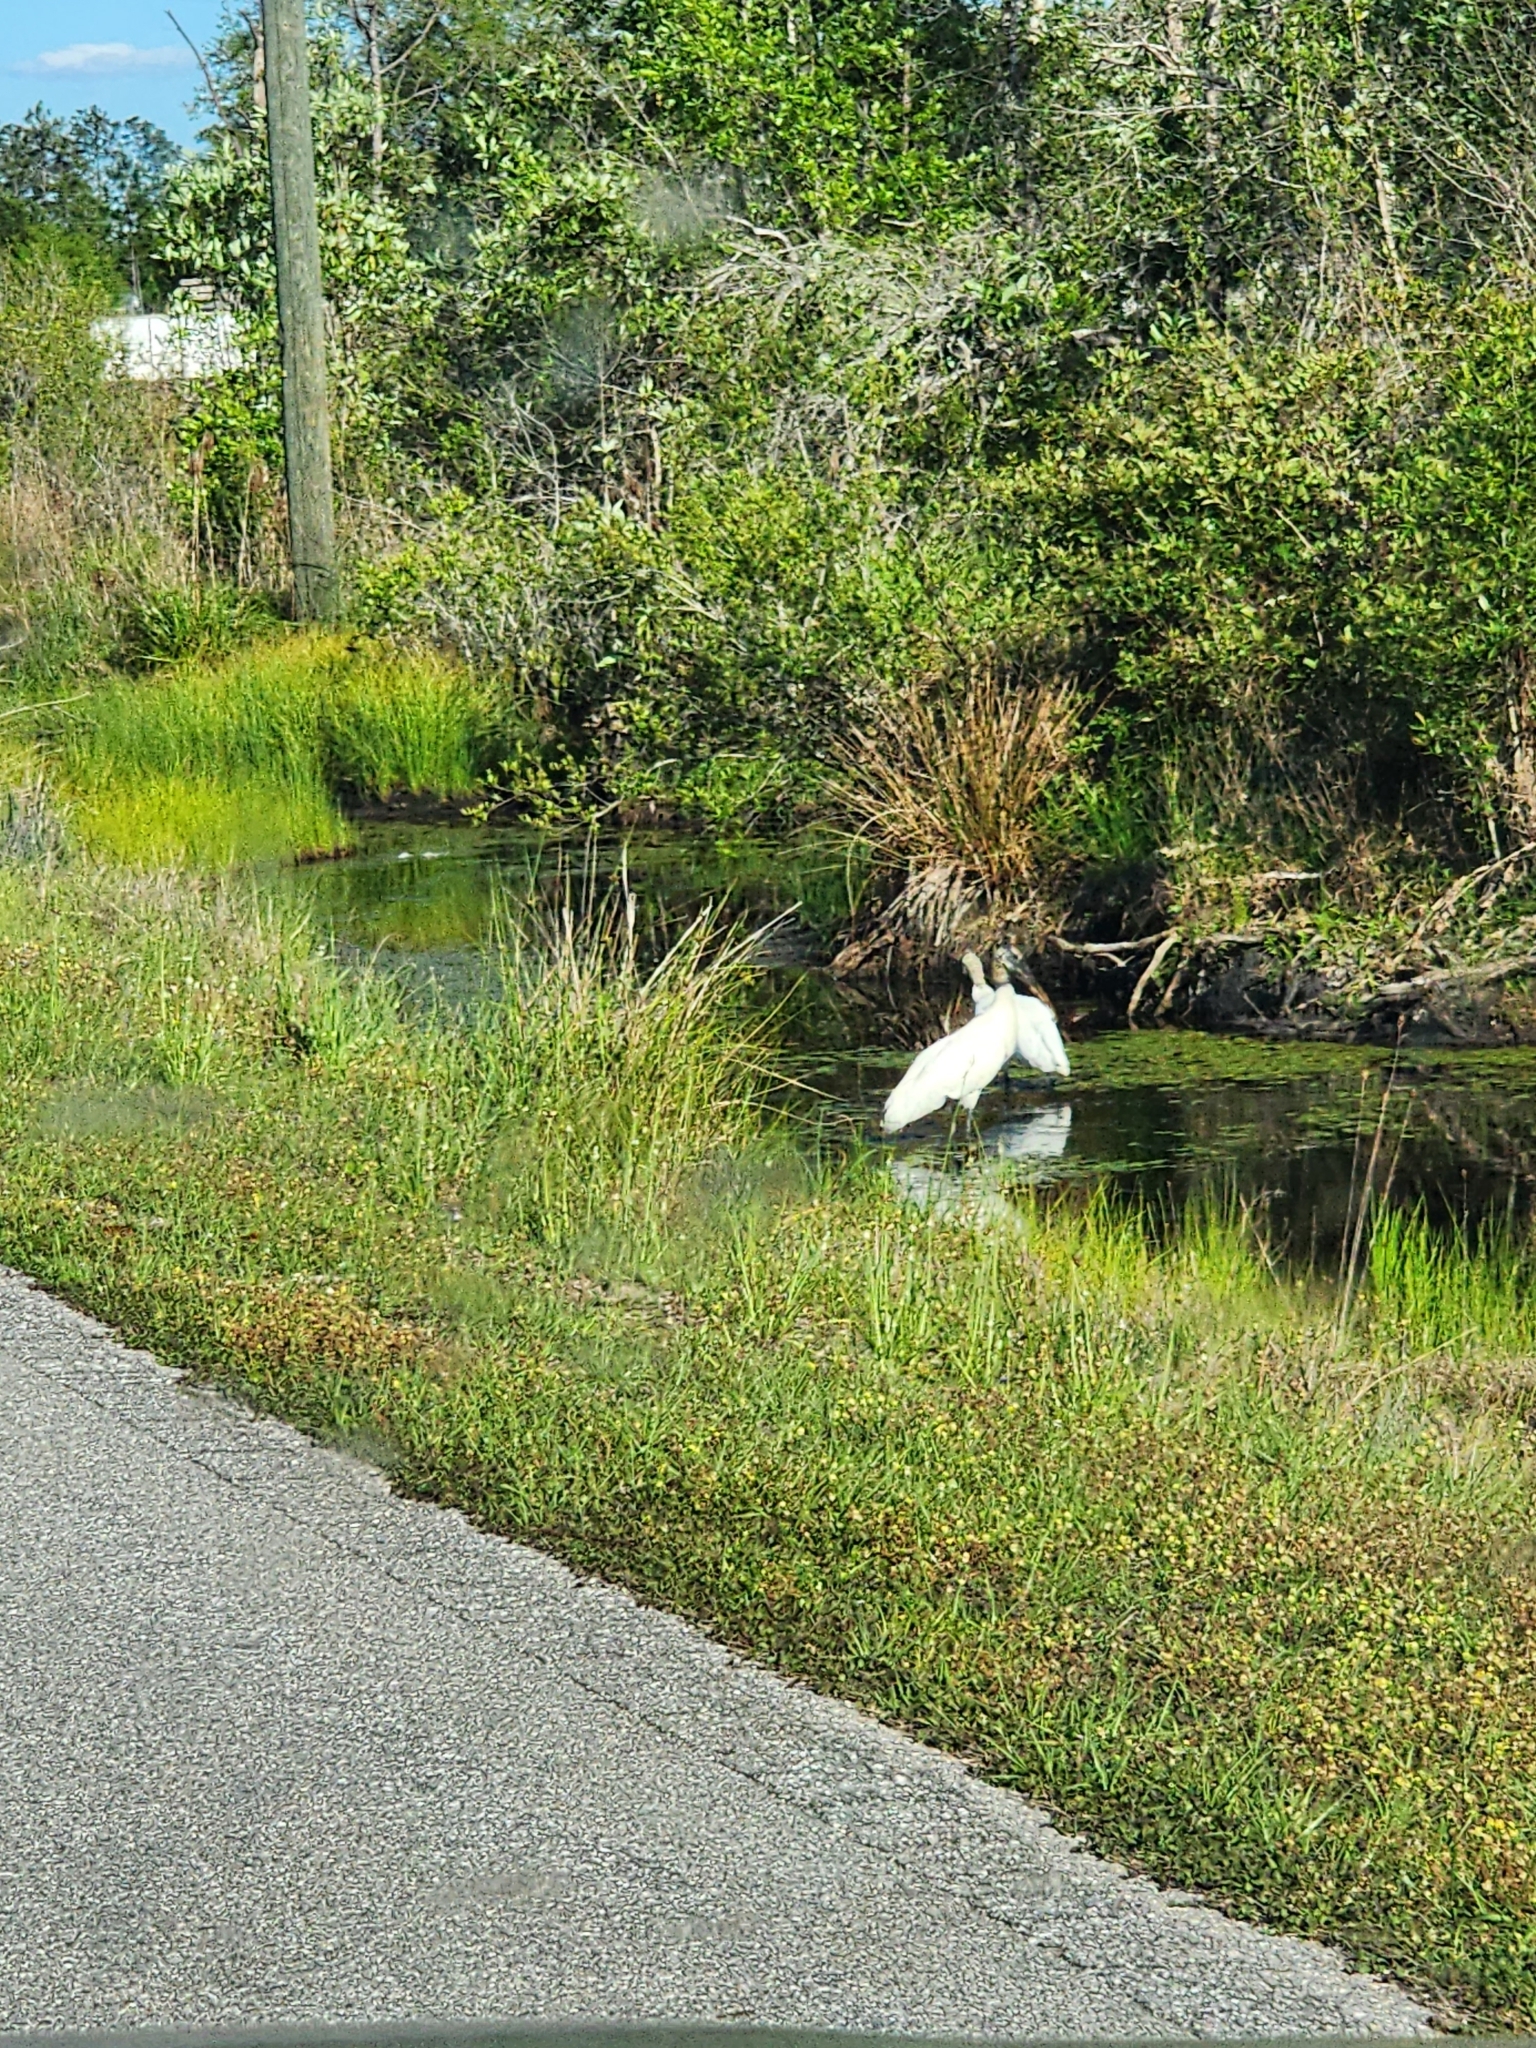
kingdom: Animalia
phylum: Chordata
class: Aves
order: Ciconiiformes
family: Ciconiidae
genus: Mycteria
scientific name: Mycteria americana
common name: Wood stork
